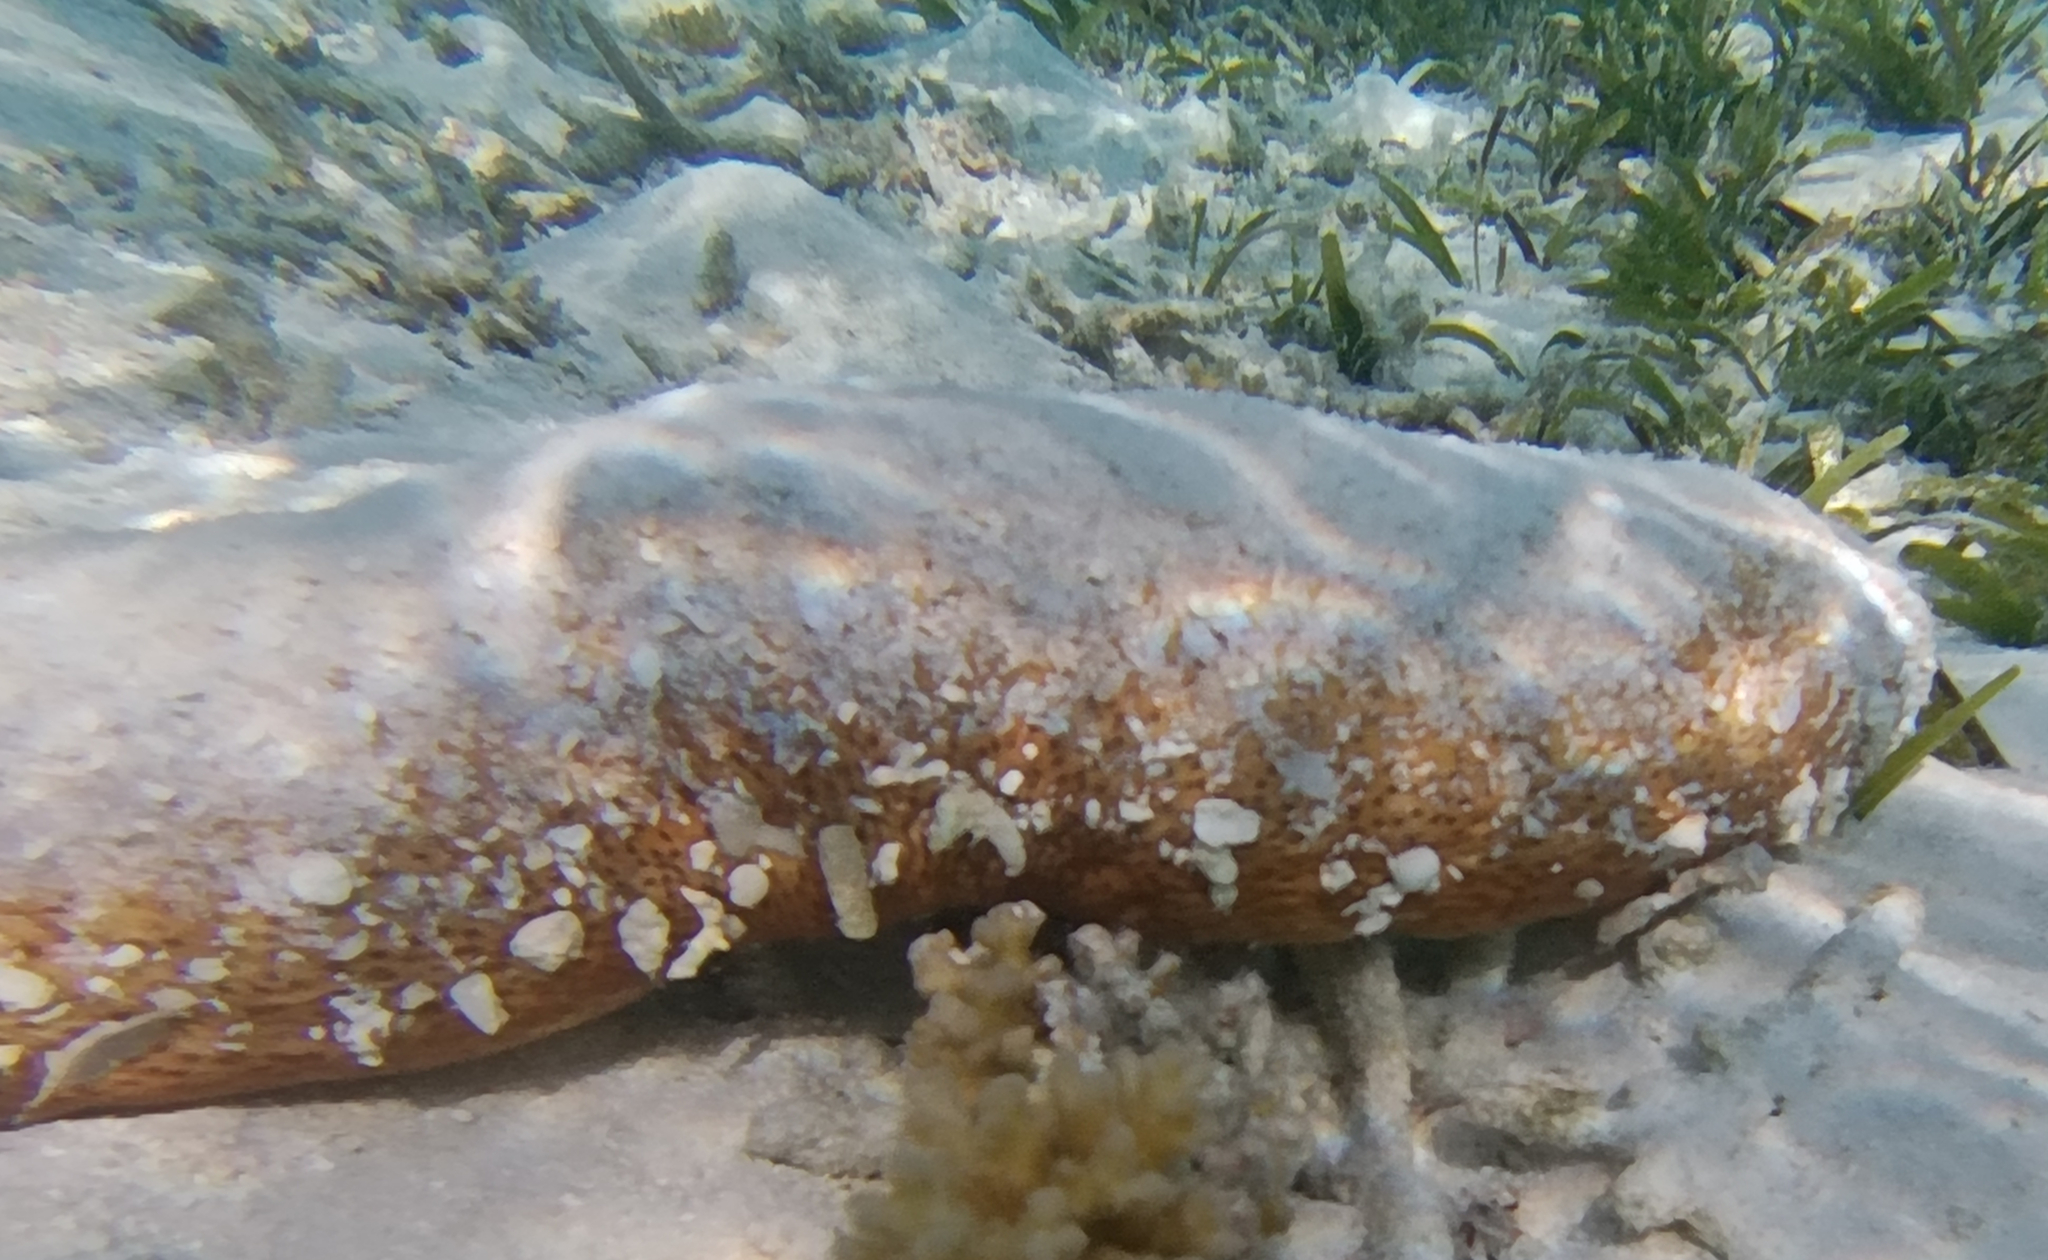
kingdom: Animalia
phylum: Echinodermata
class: Holothuroidea
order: Holothuriida
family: Holothuriidae
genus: Bohadschia
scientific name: Bohadschia vitiensis
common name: Brown sandfish
